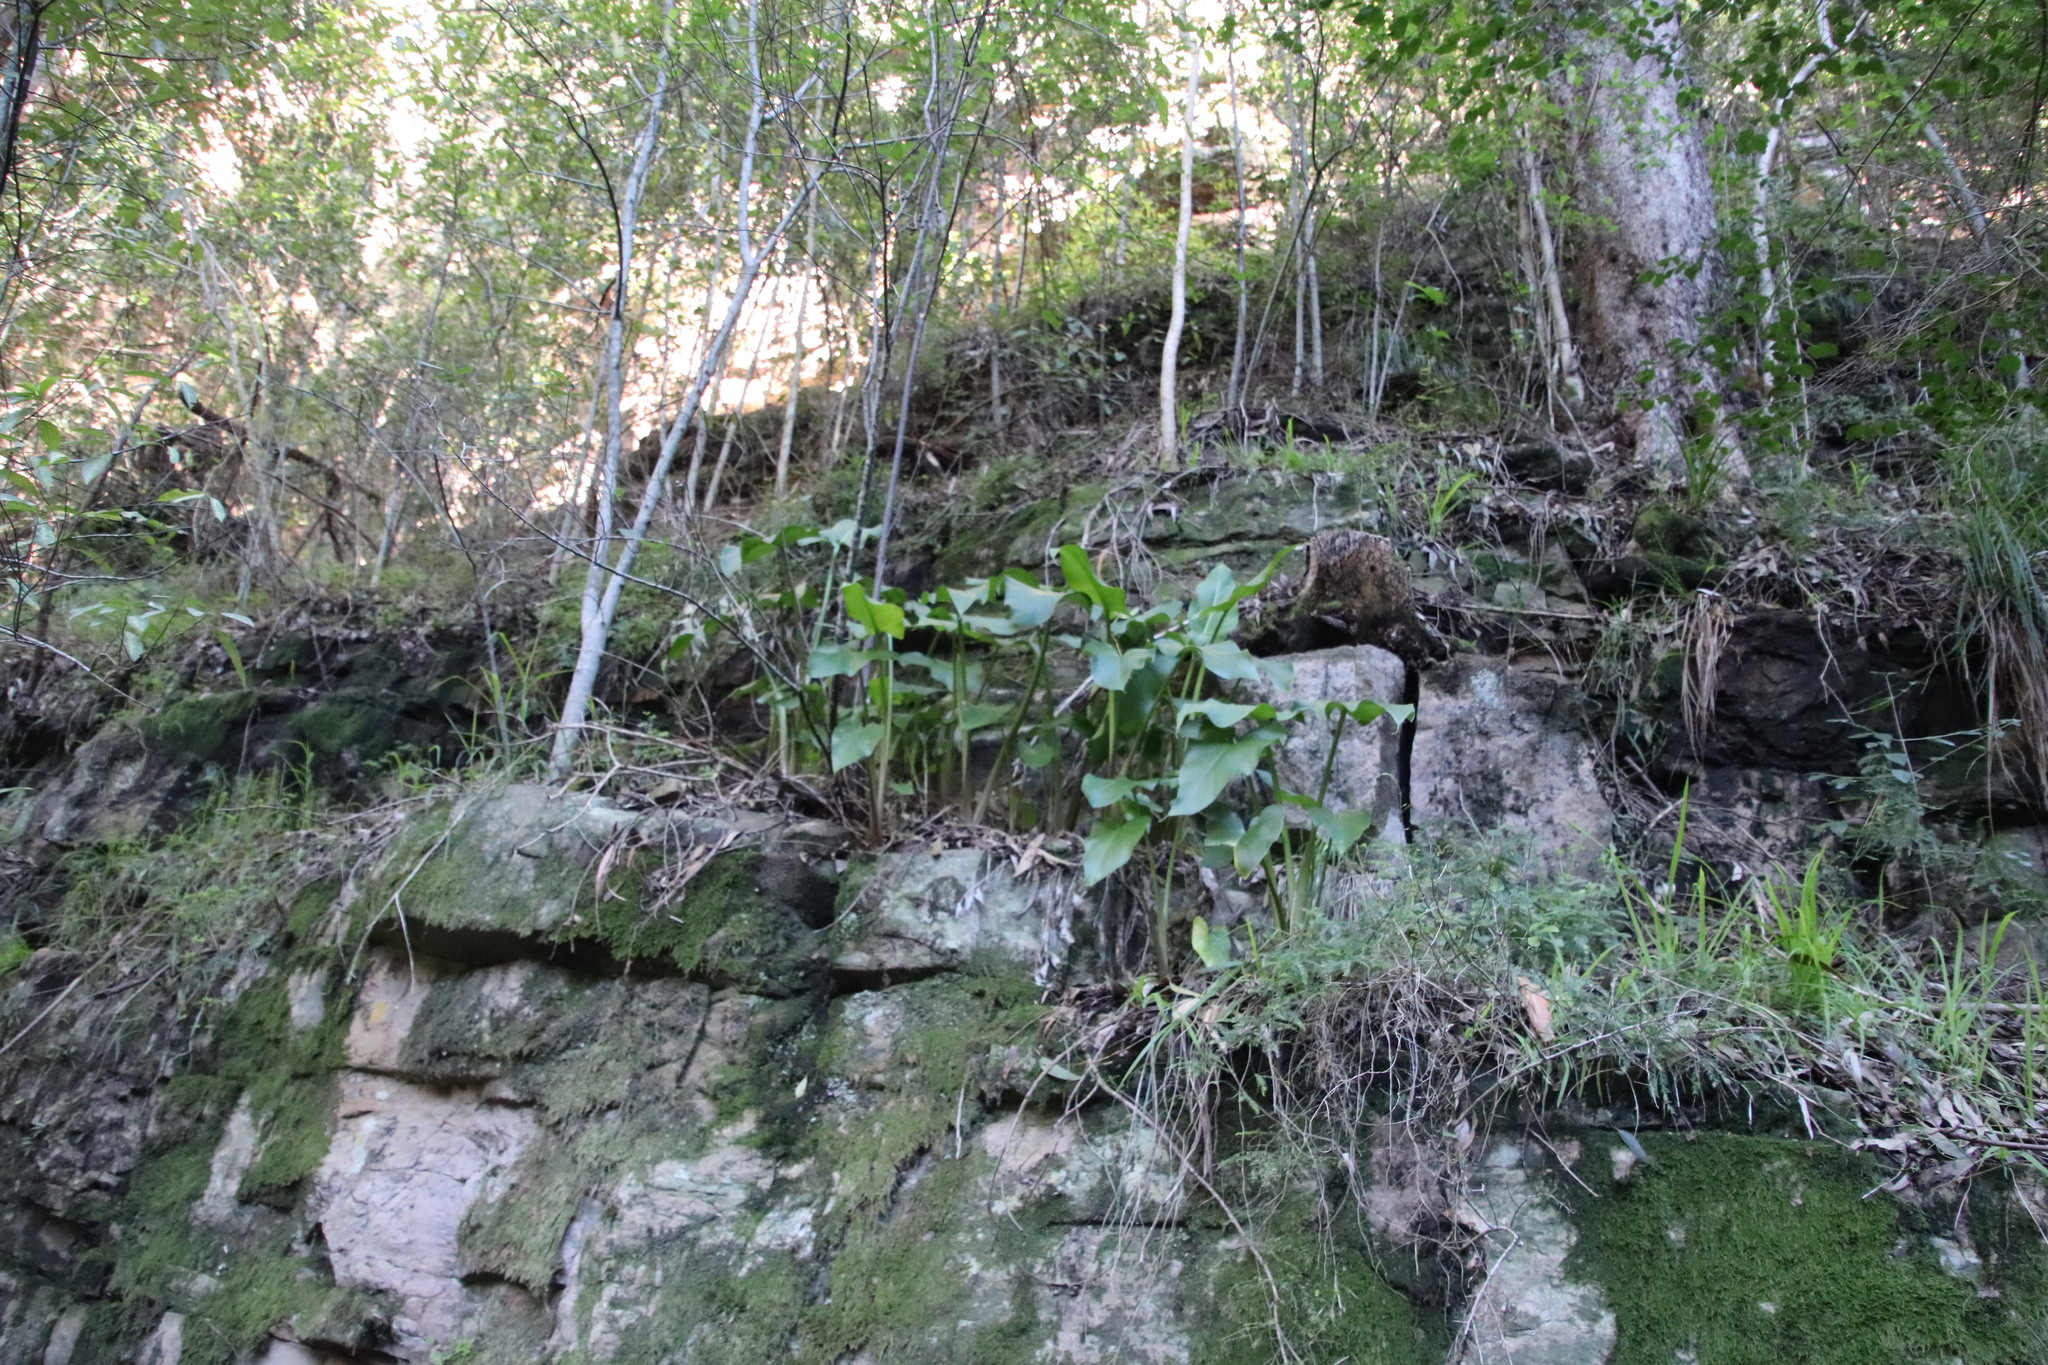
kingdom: Plantae
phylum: Tracheophyta
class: Liliopsida
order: Alismatales
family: Araceae
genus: Zantedeschia
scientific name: Zantedeschia aethiopica
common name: Altar-lily
